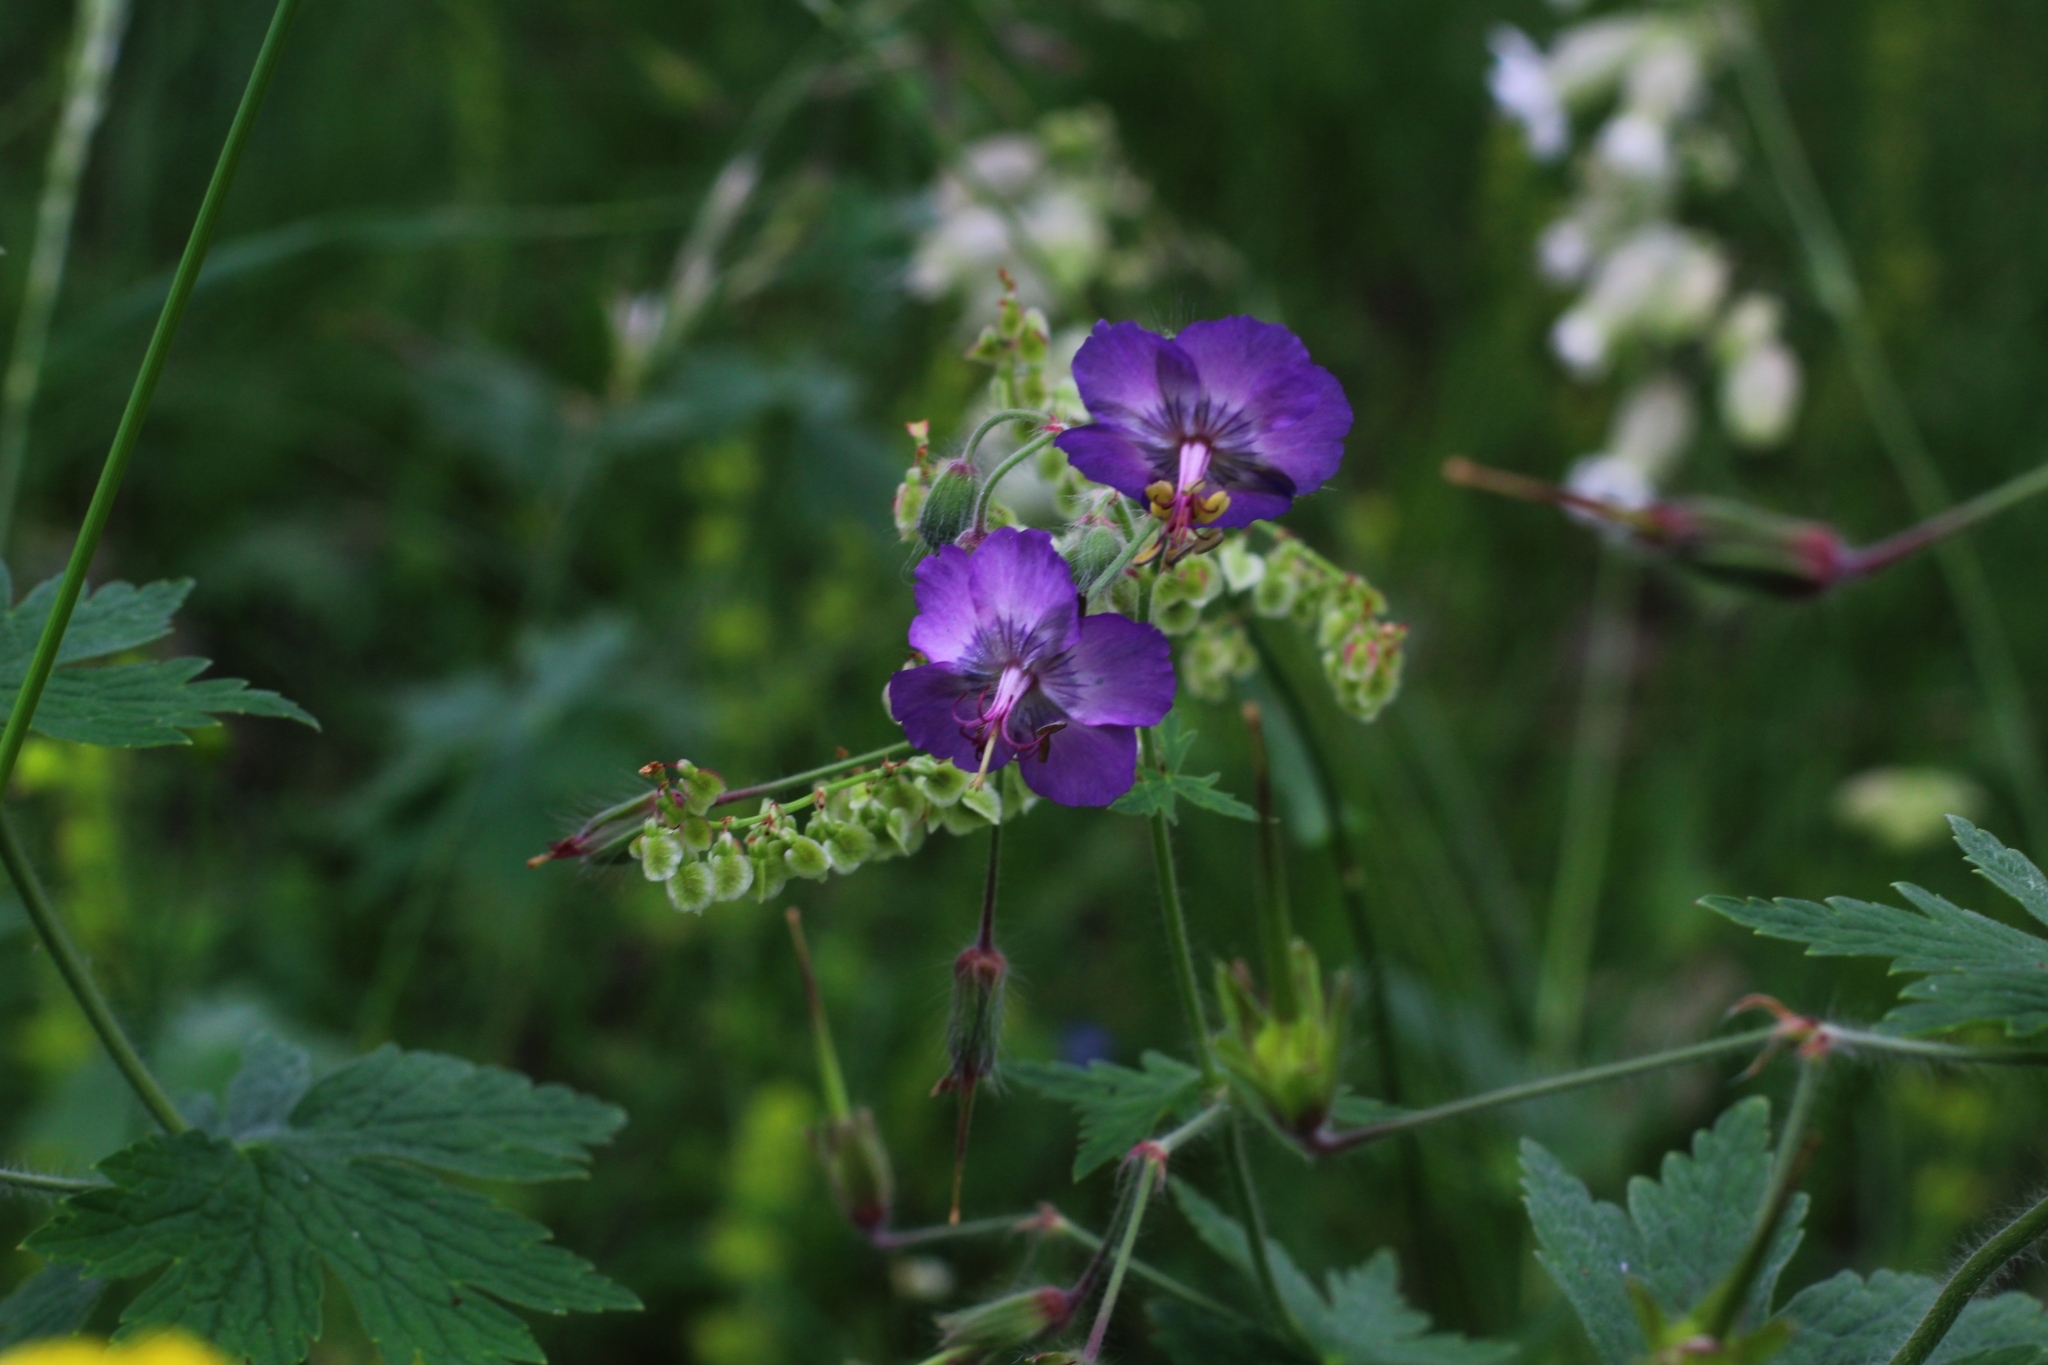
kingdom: Plantae
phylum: Tracheophyta
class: Magnoliopsida
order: Geraniales
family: Geraniaceae
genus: Geranium
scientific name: Geranium phaeum
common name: Dusky crane's-bill
